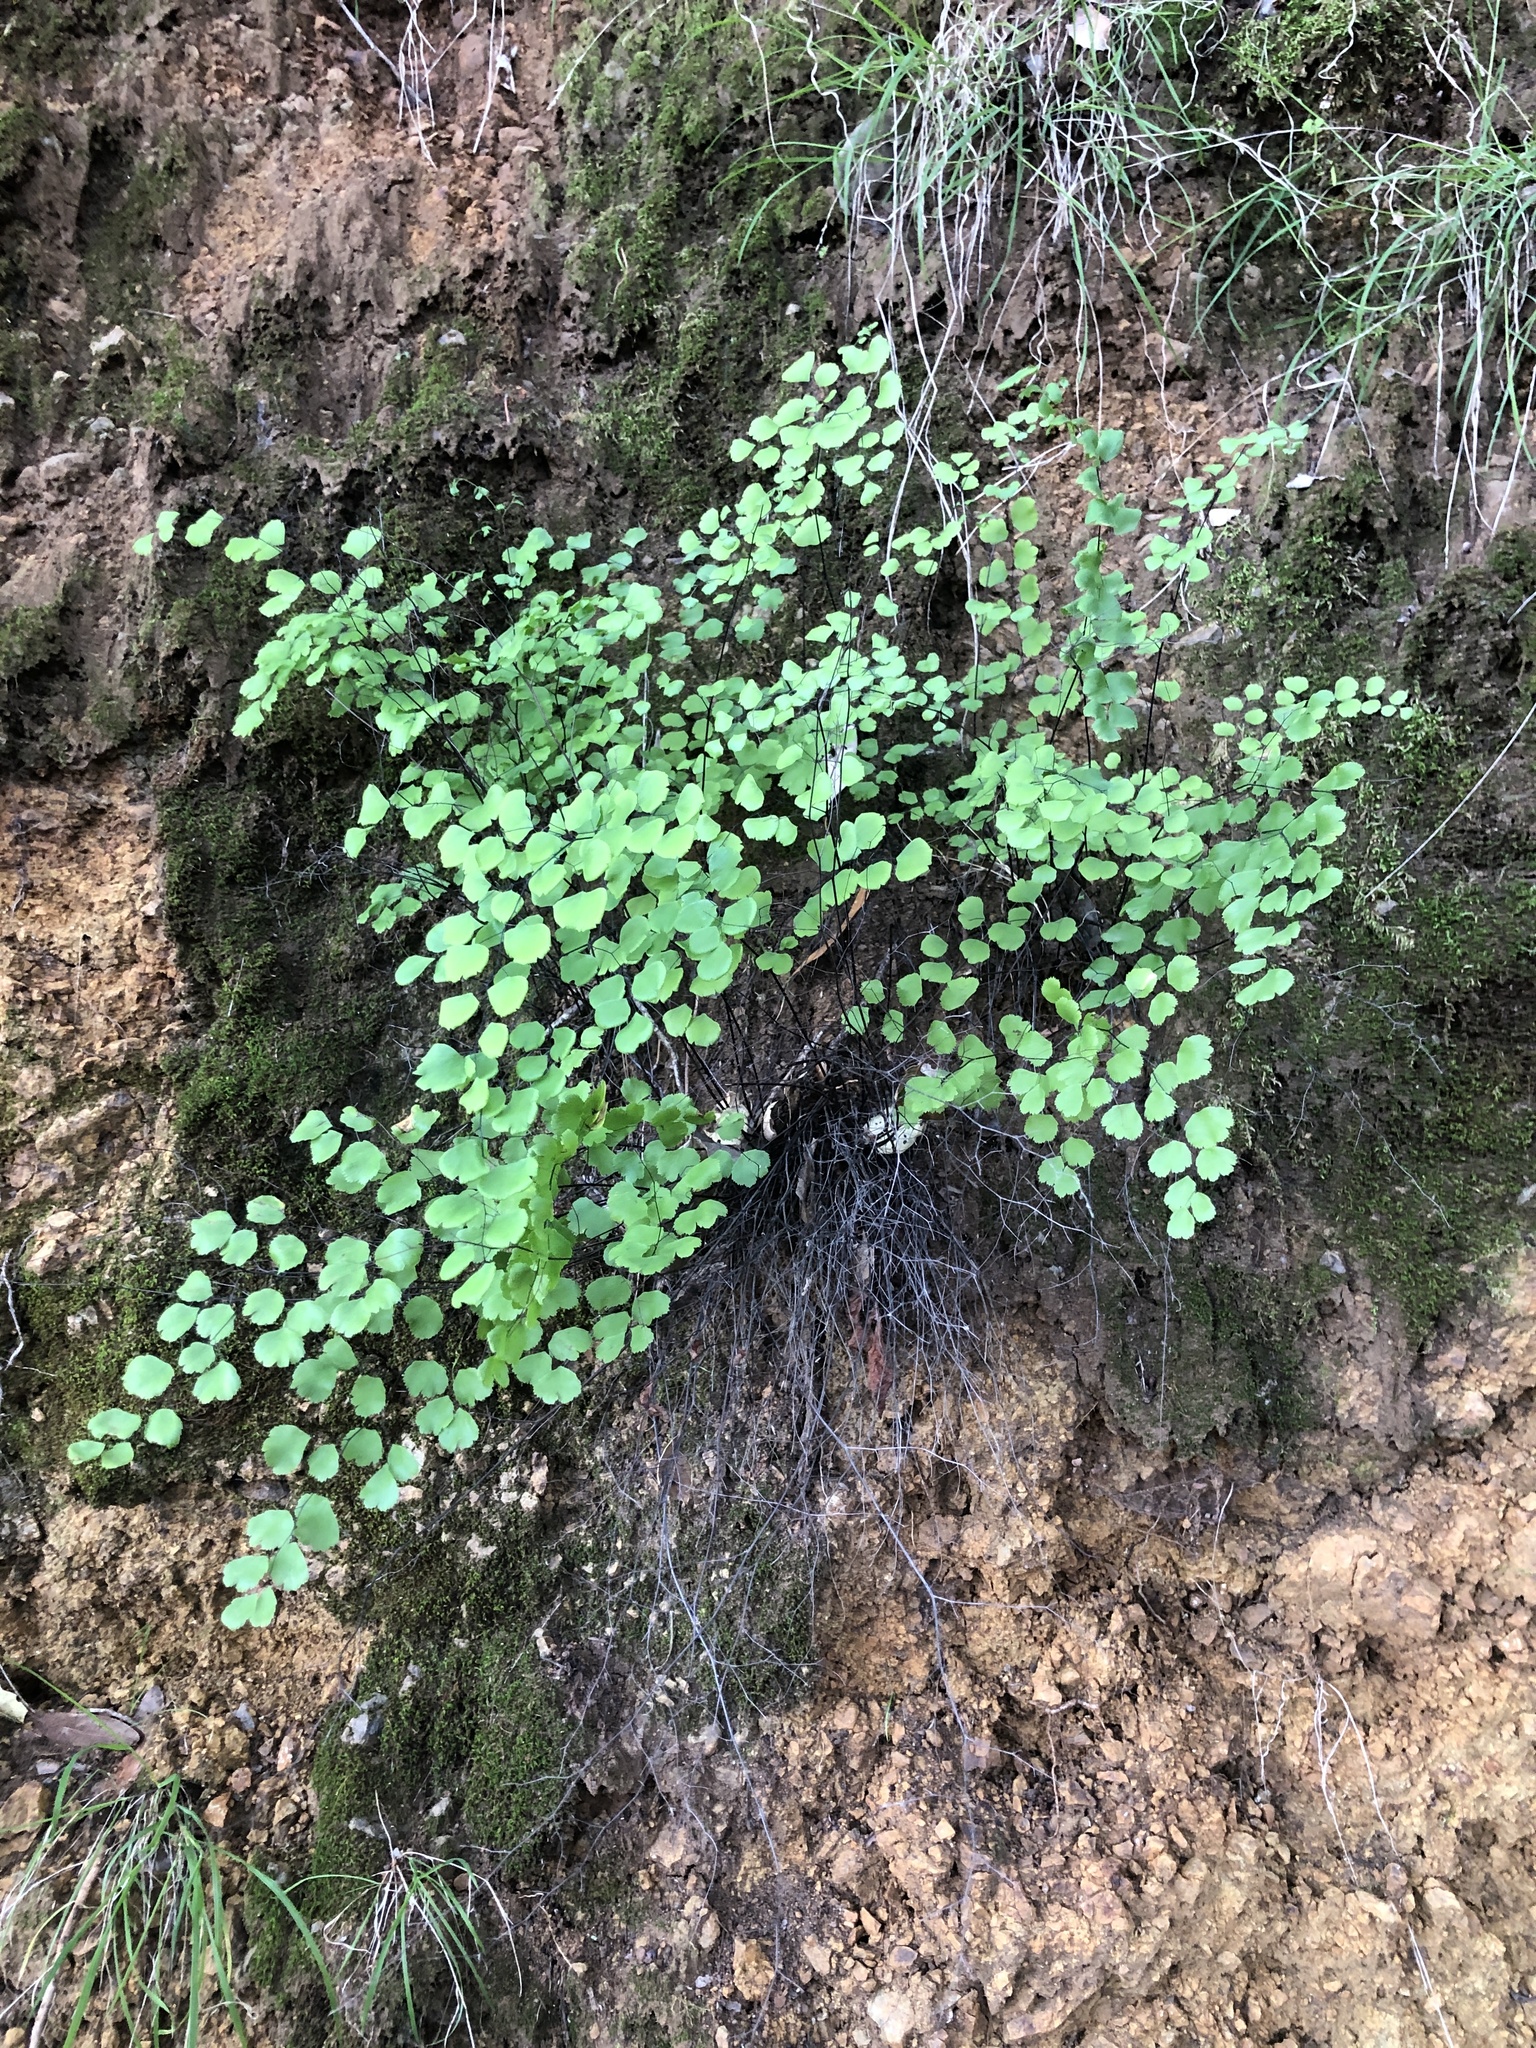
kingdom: Plantae
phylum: Tracheophyta
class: Polypodiopsida
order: Polypodiales
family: Pteridaceae
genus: Adiantum
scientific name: Adiantum jordanii
